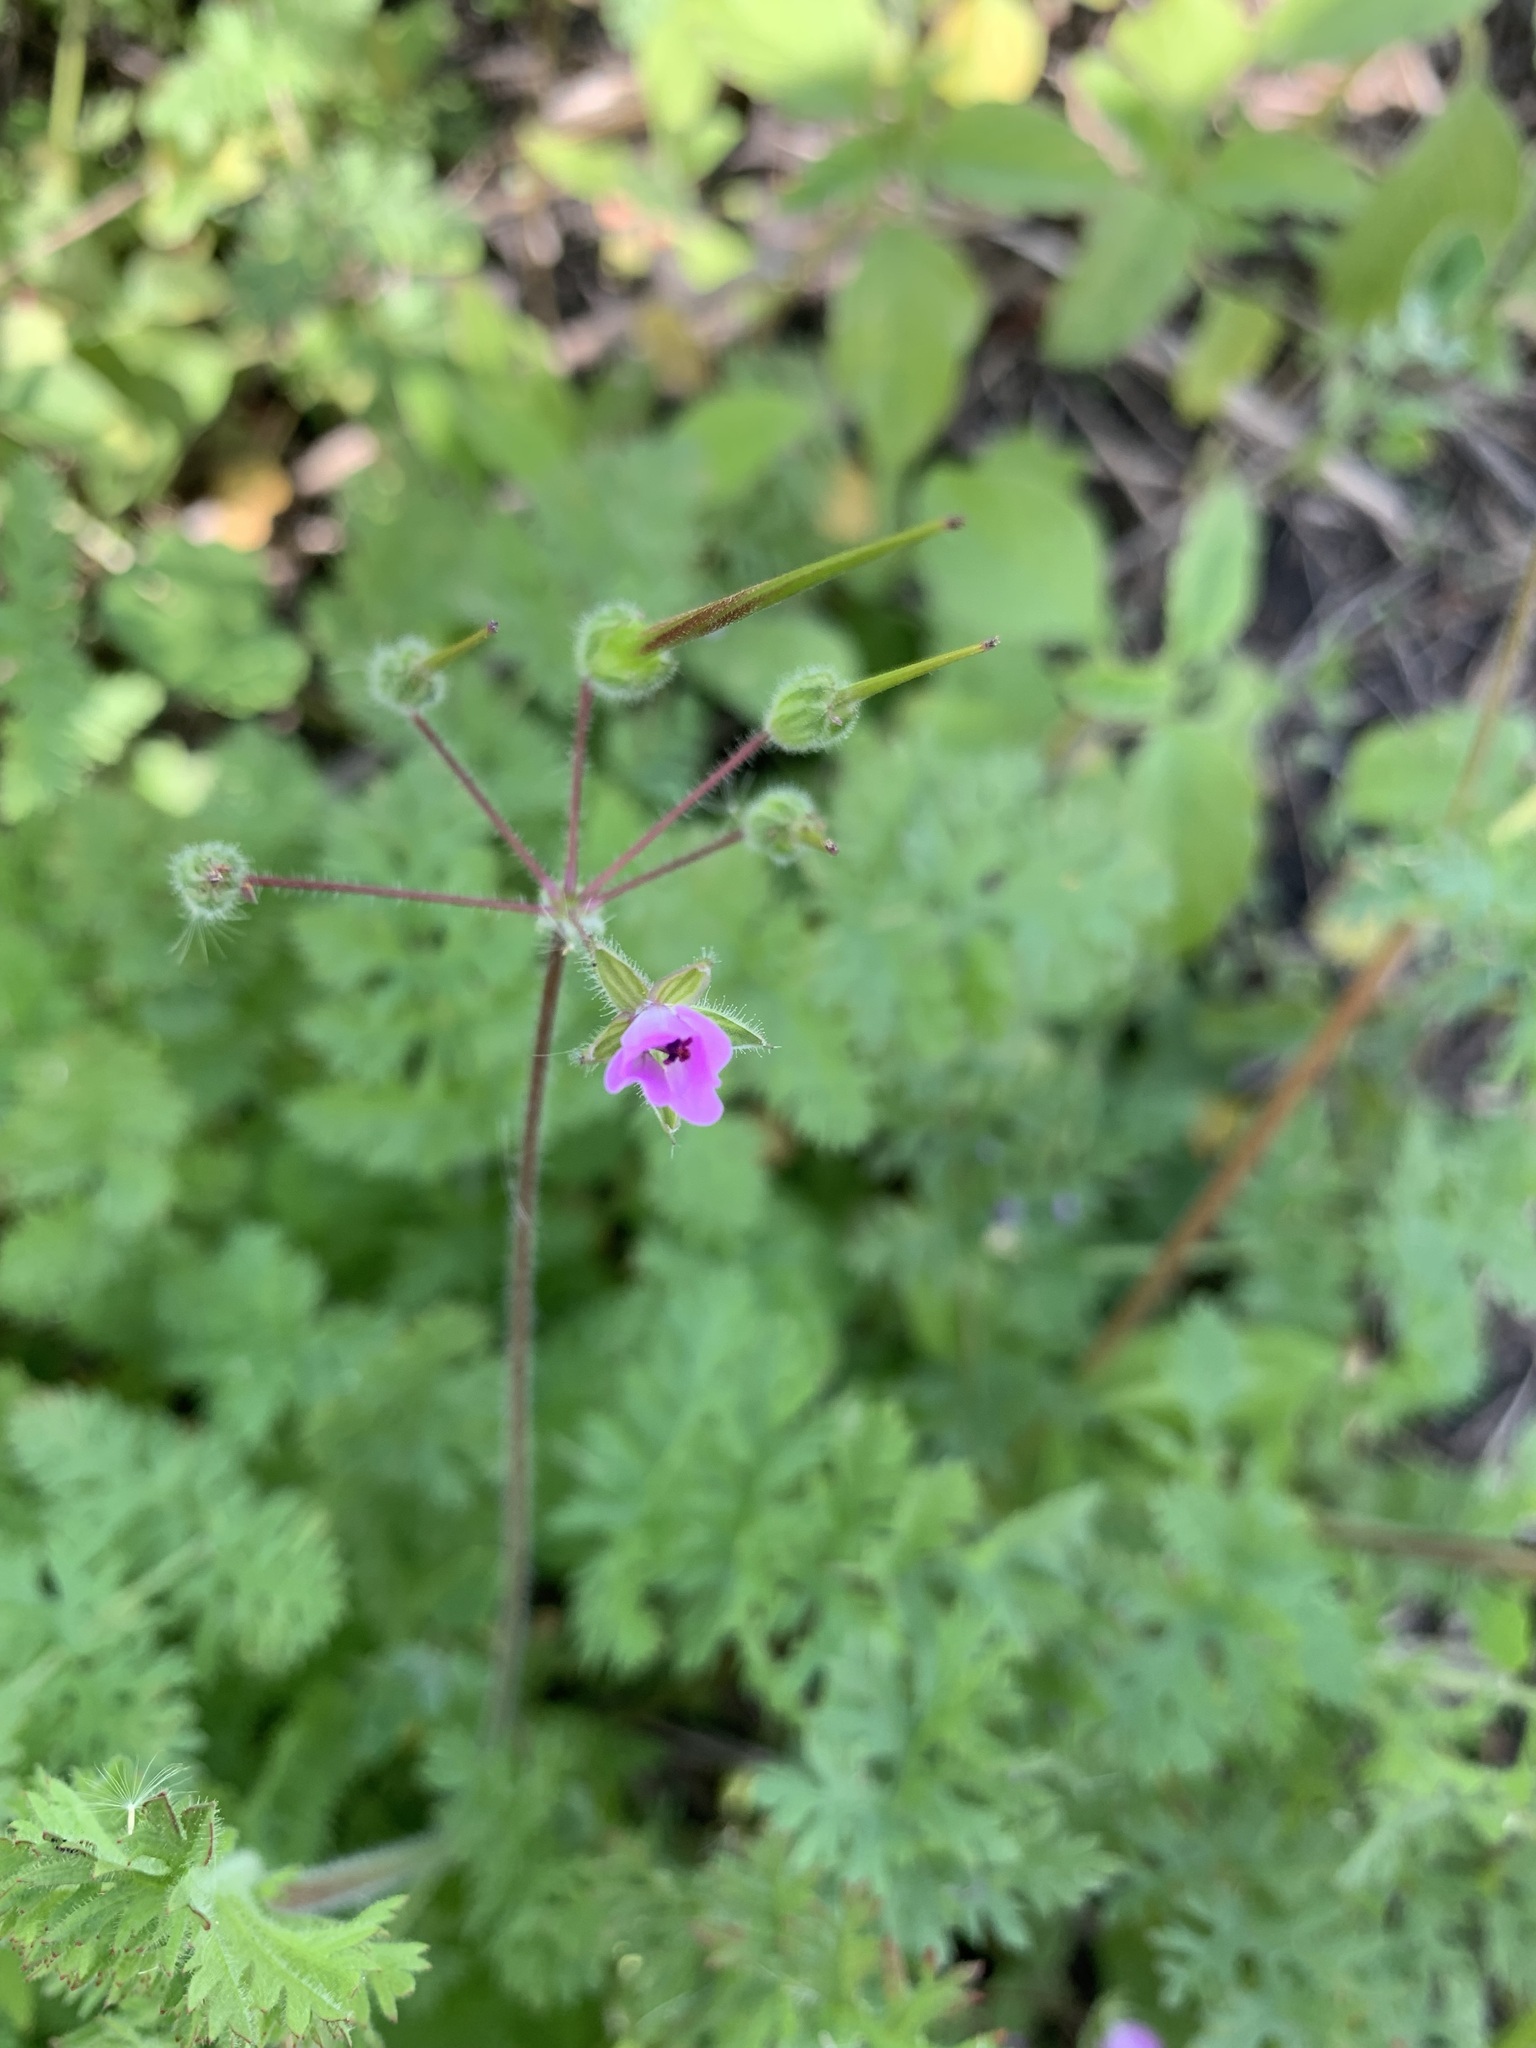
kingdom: Plantae
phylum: Tracheophyta
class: Magnoliopsida
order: Geraniales
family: Geraniaceae
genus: Erodium
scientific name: Erodium cicutarium
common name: Common stork's-bill
